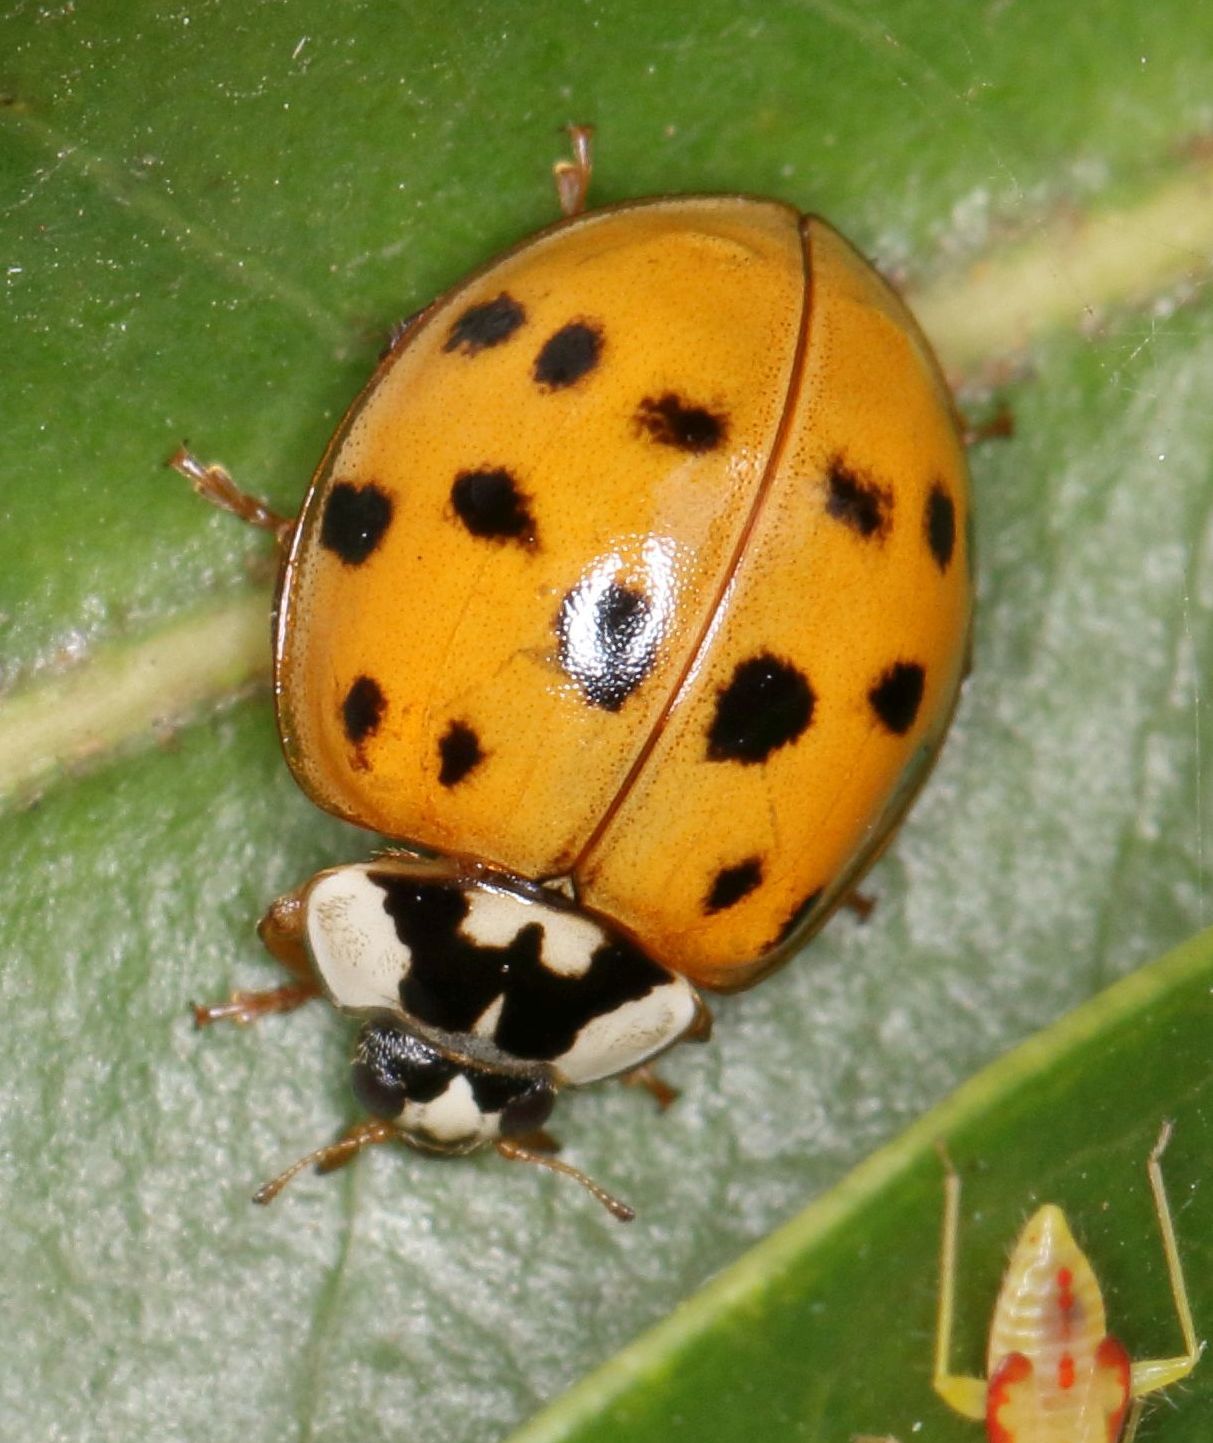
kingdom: Animalia
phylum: Arthropoda
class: Insecta
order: Coleoptera
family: Coccinellidae
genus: Harmonia
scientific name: Harmonia axyridis
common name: Harlequin ladybird
